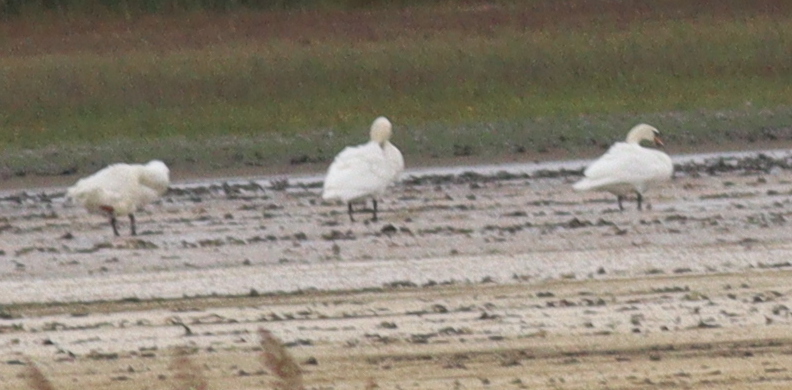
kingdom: Animalia
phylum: Chordata
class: Aves
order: Anseriformes
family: Anatidae
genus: Cygnus
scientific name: Cygnus olor
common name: Mute swan
